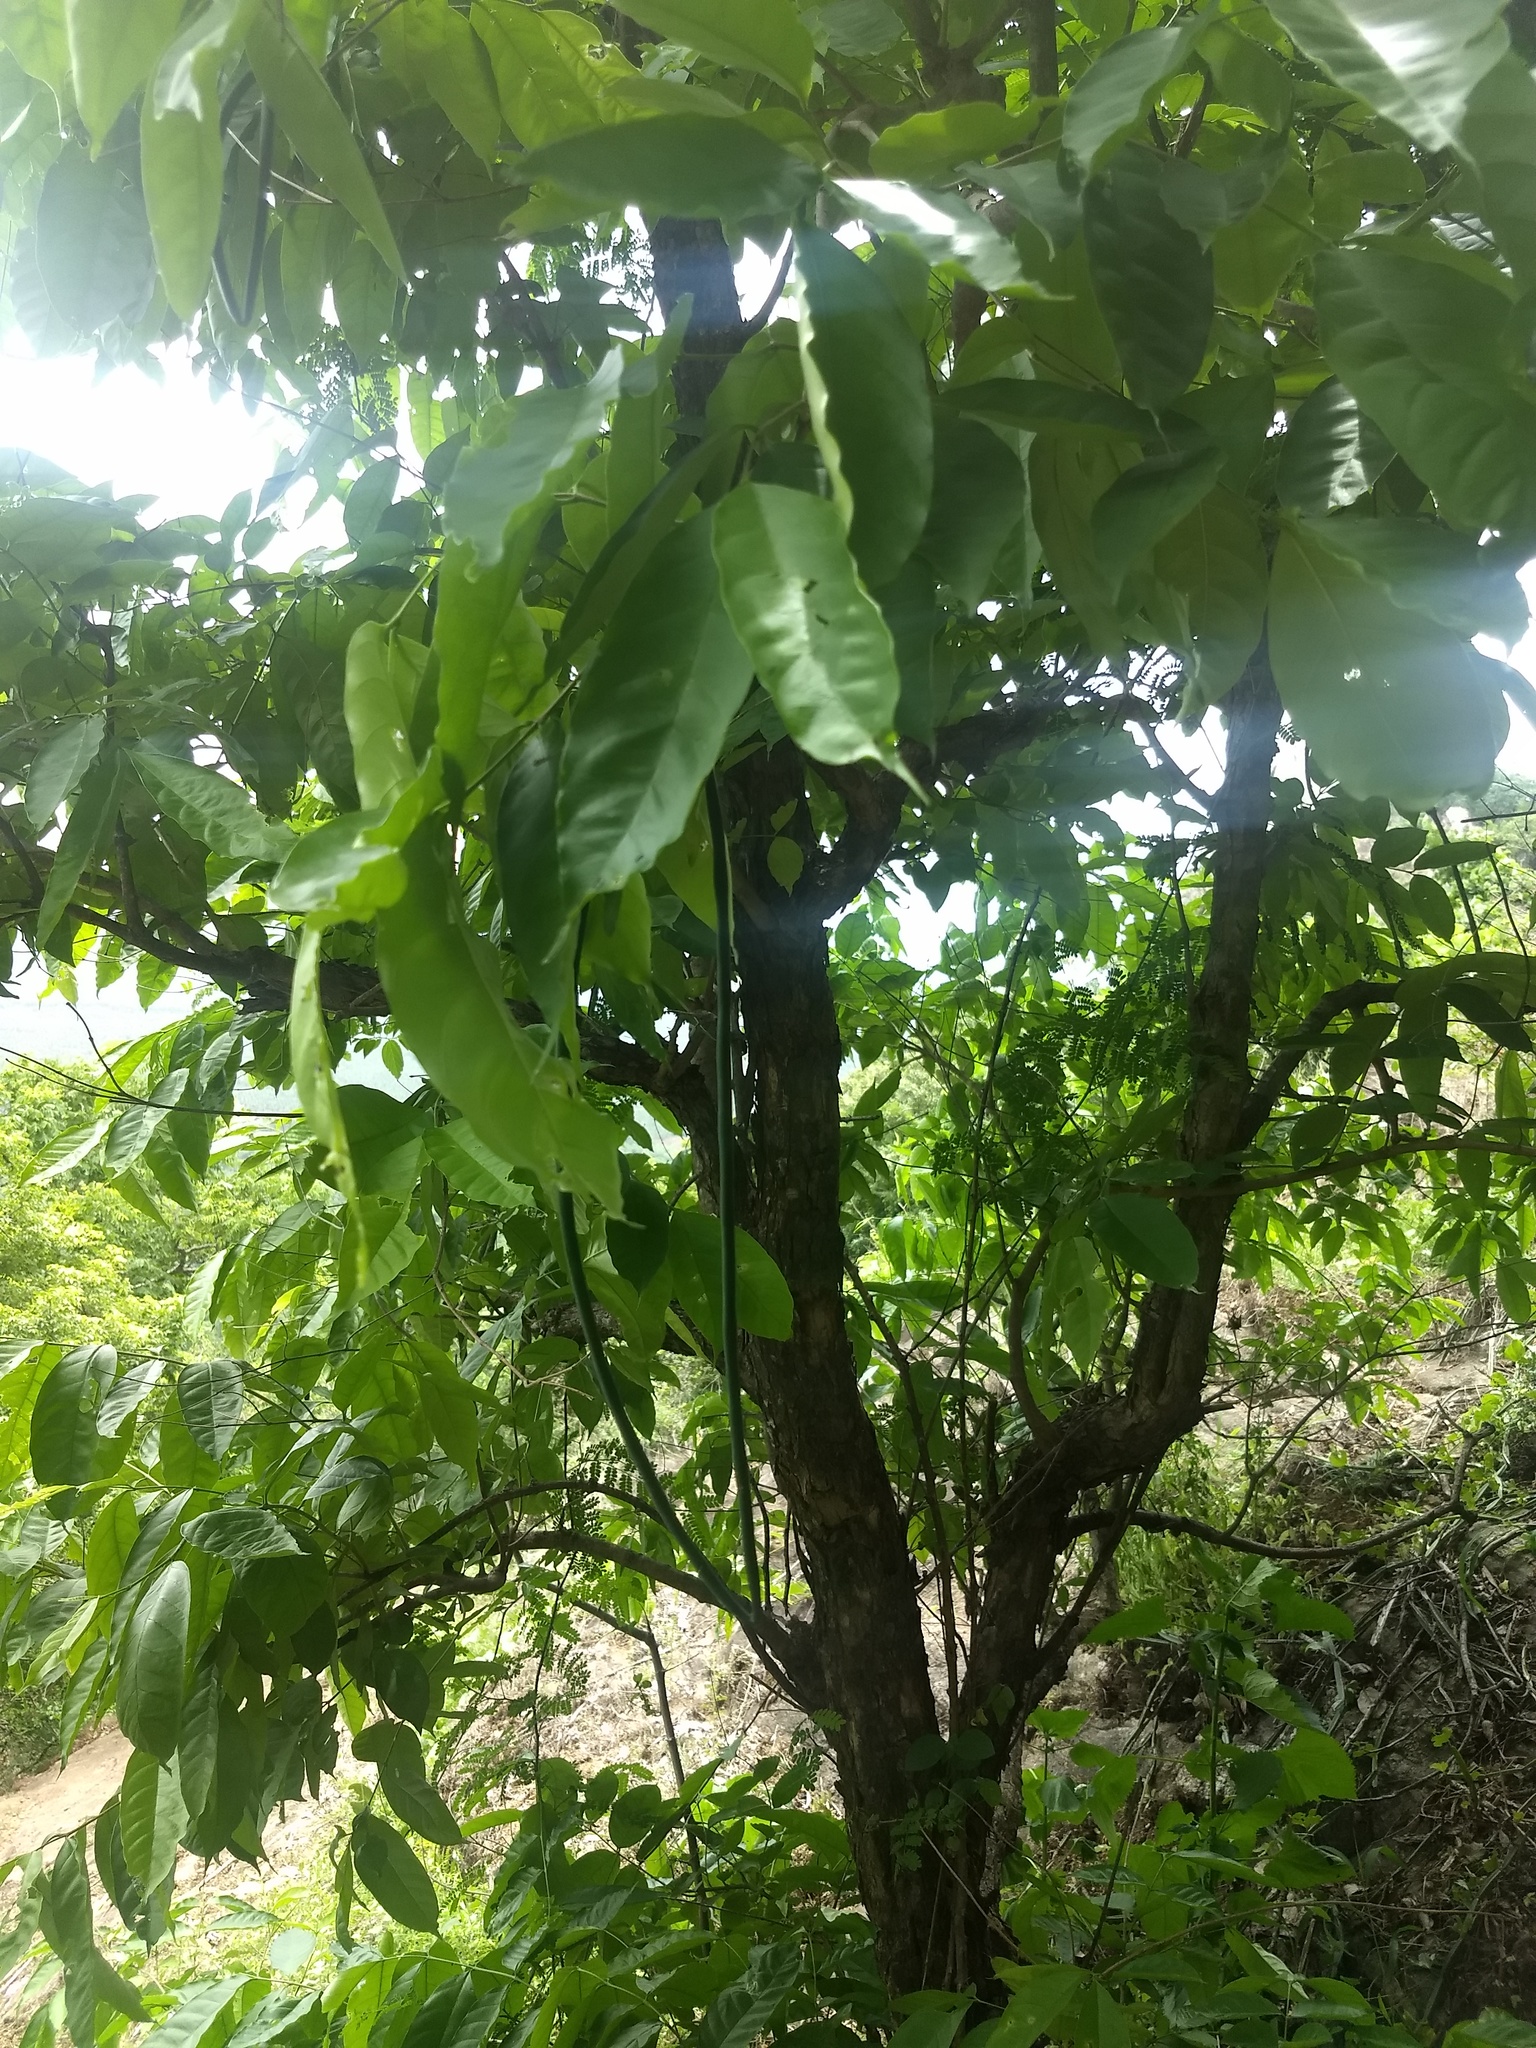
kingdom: Plantae
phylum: Tracheophyta
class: Magnoliopsida
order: Gentianales
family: Apocynaceae
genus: Wrightia
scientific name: Wrightia tinctoria
